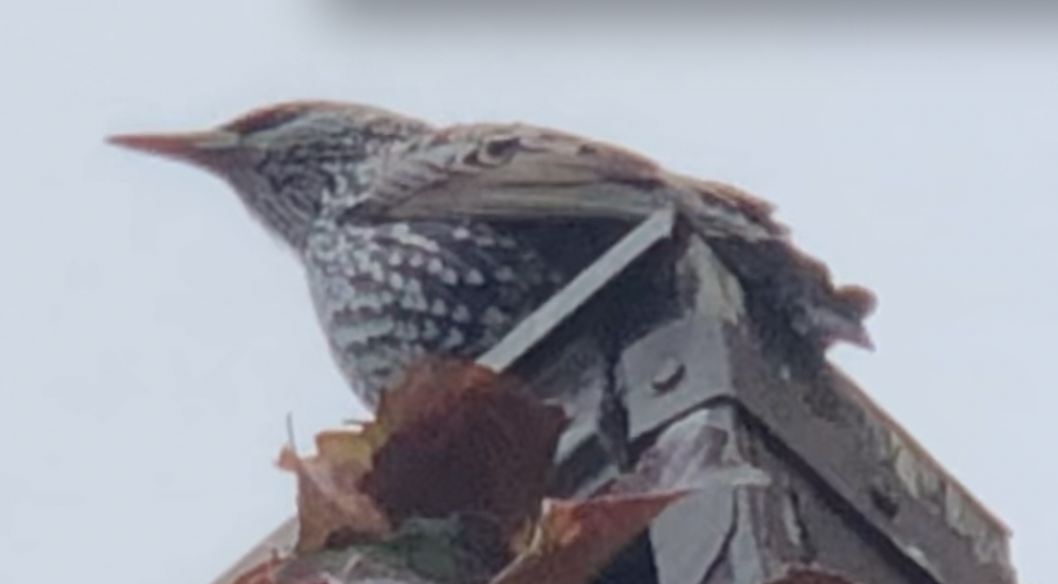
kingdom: Animalia
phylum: Chordata
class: Aves
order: Passeriformes
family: Sturnidae
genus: Sturnus
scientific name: Sturnus vulgaris
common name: Common starling
